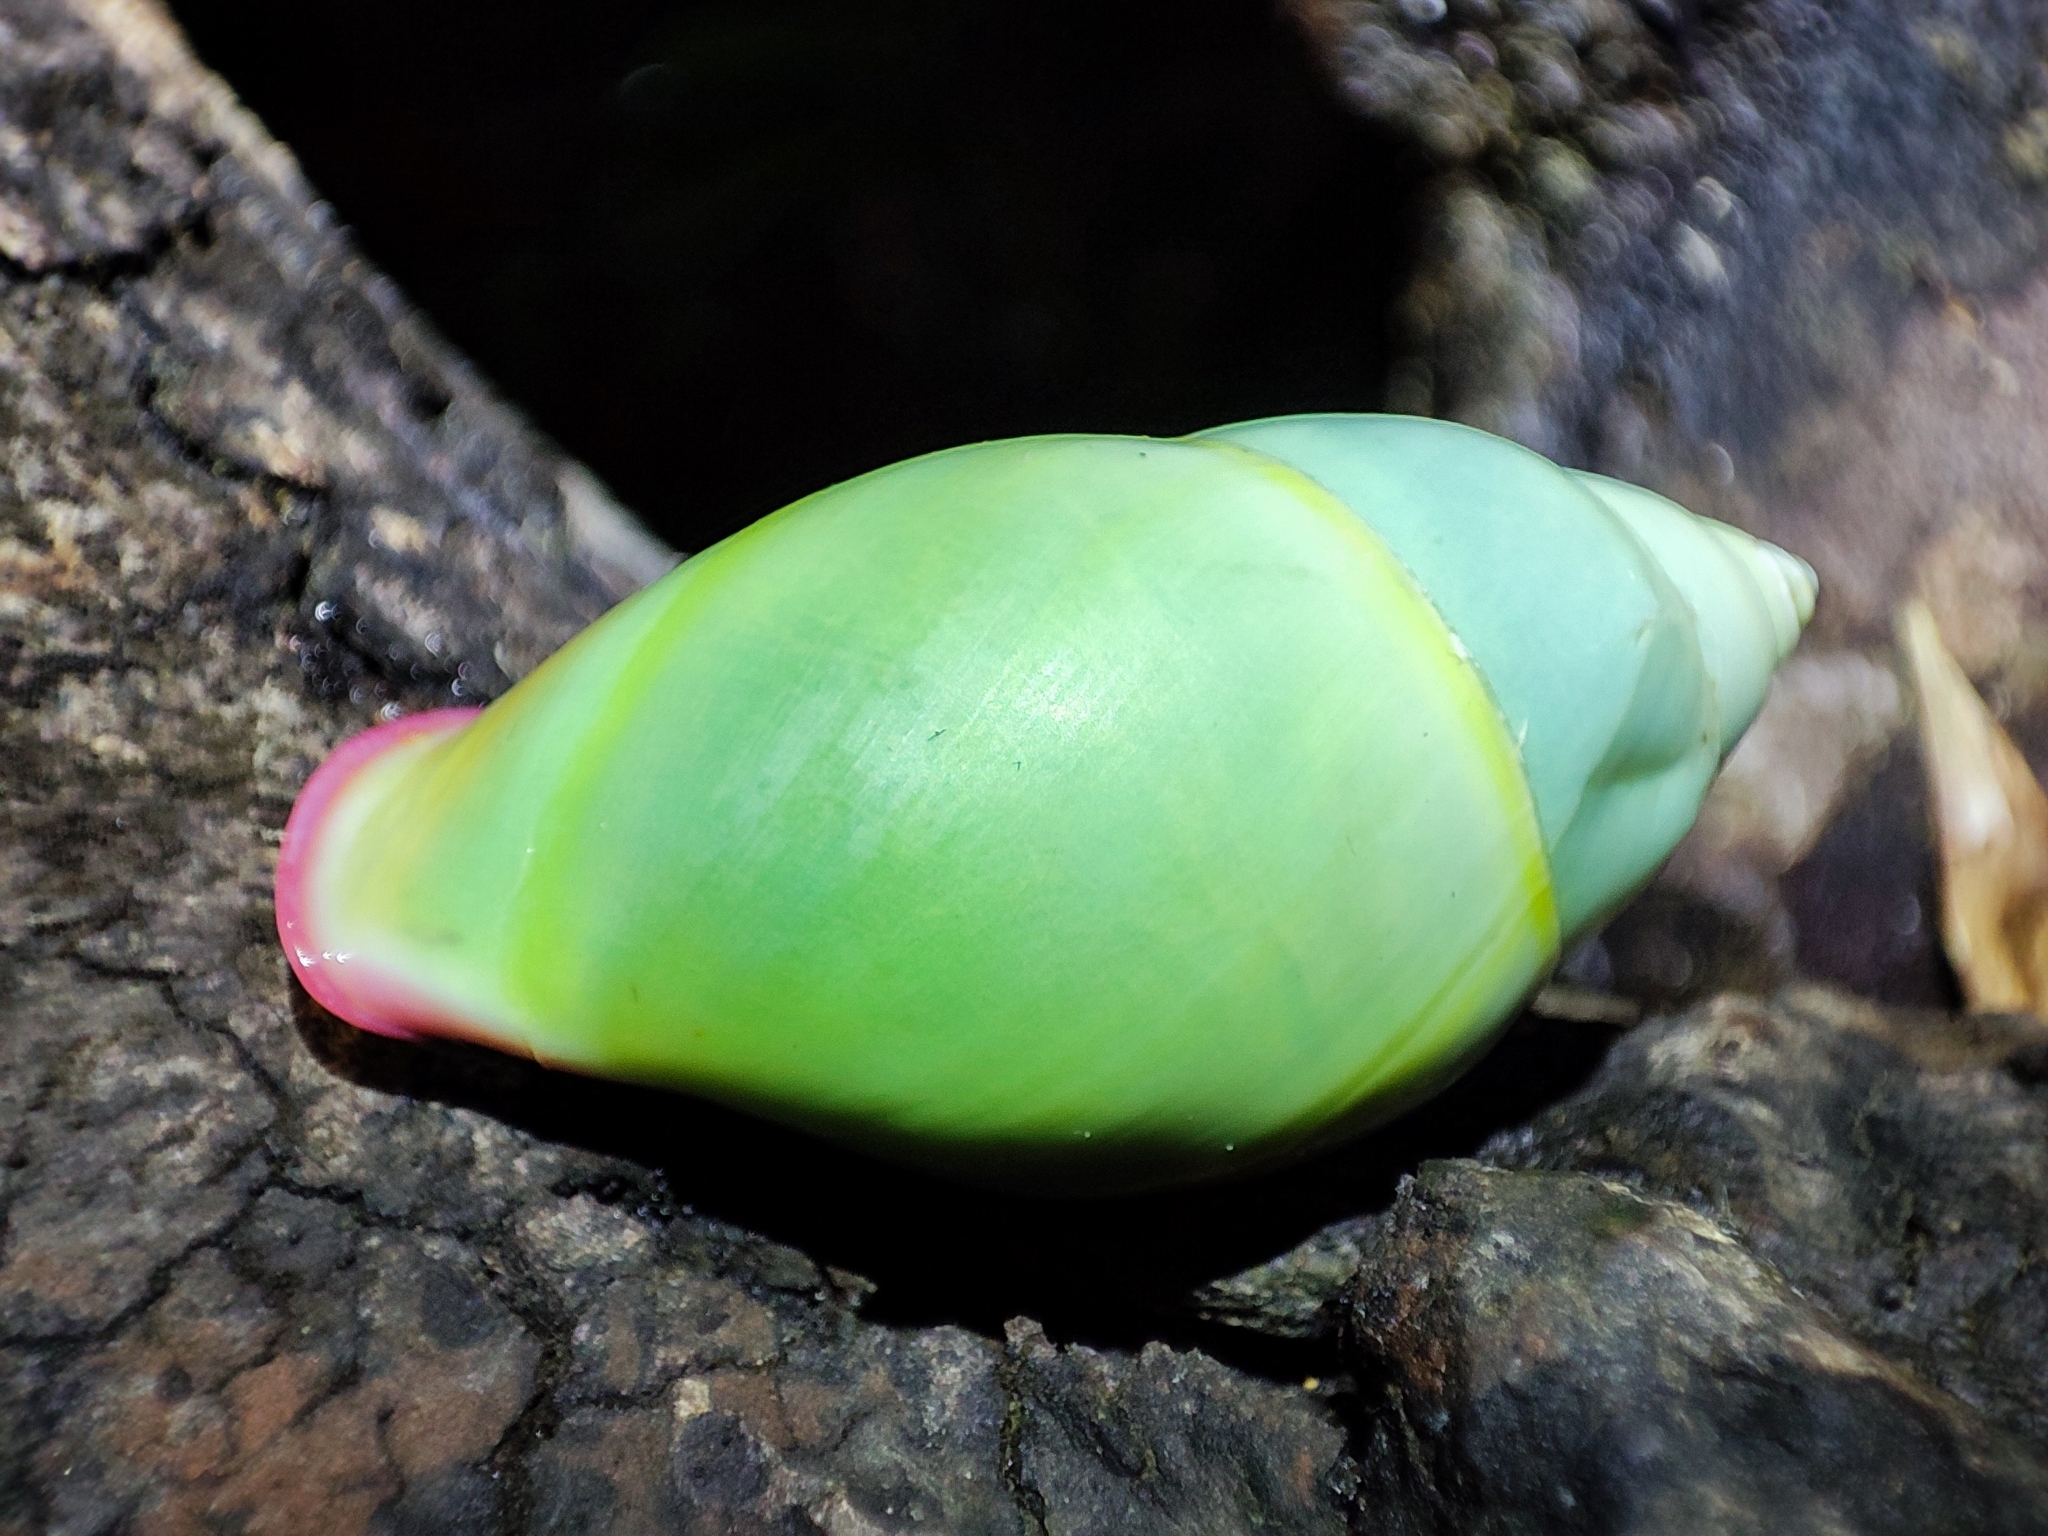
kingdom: Animalia
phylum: Mollusca
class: Gastropoda
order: Stylommatophora
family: Camaenidae
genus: Amphidromus
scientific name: Amphidromus phamanhi
